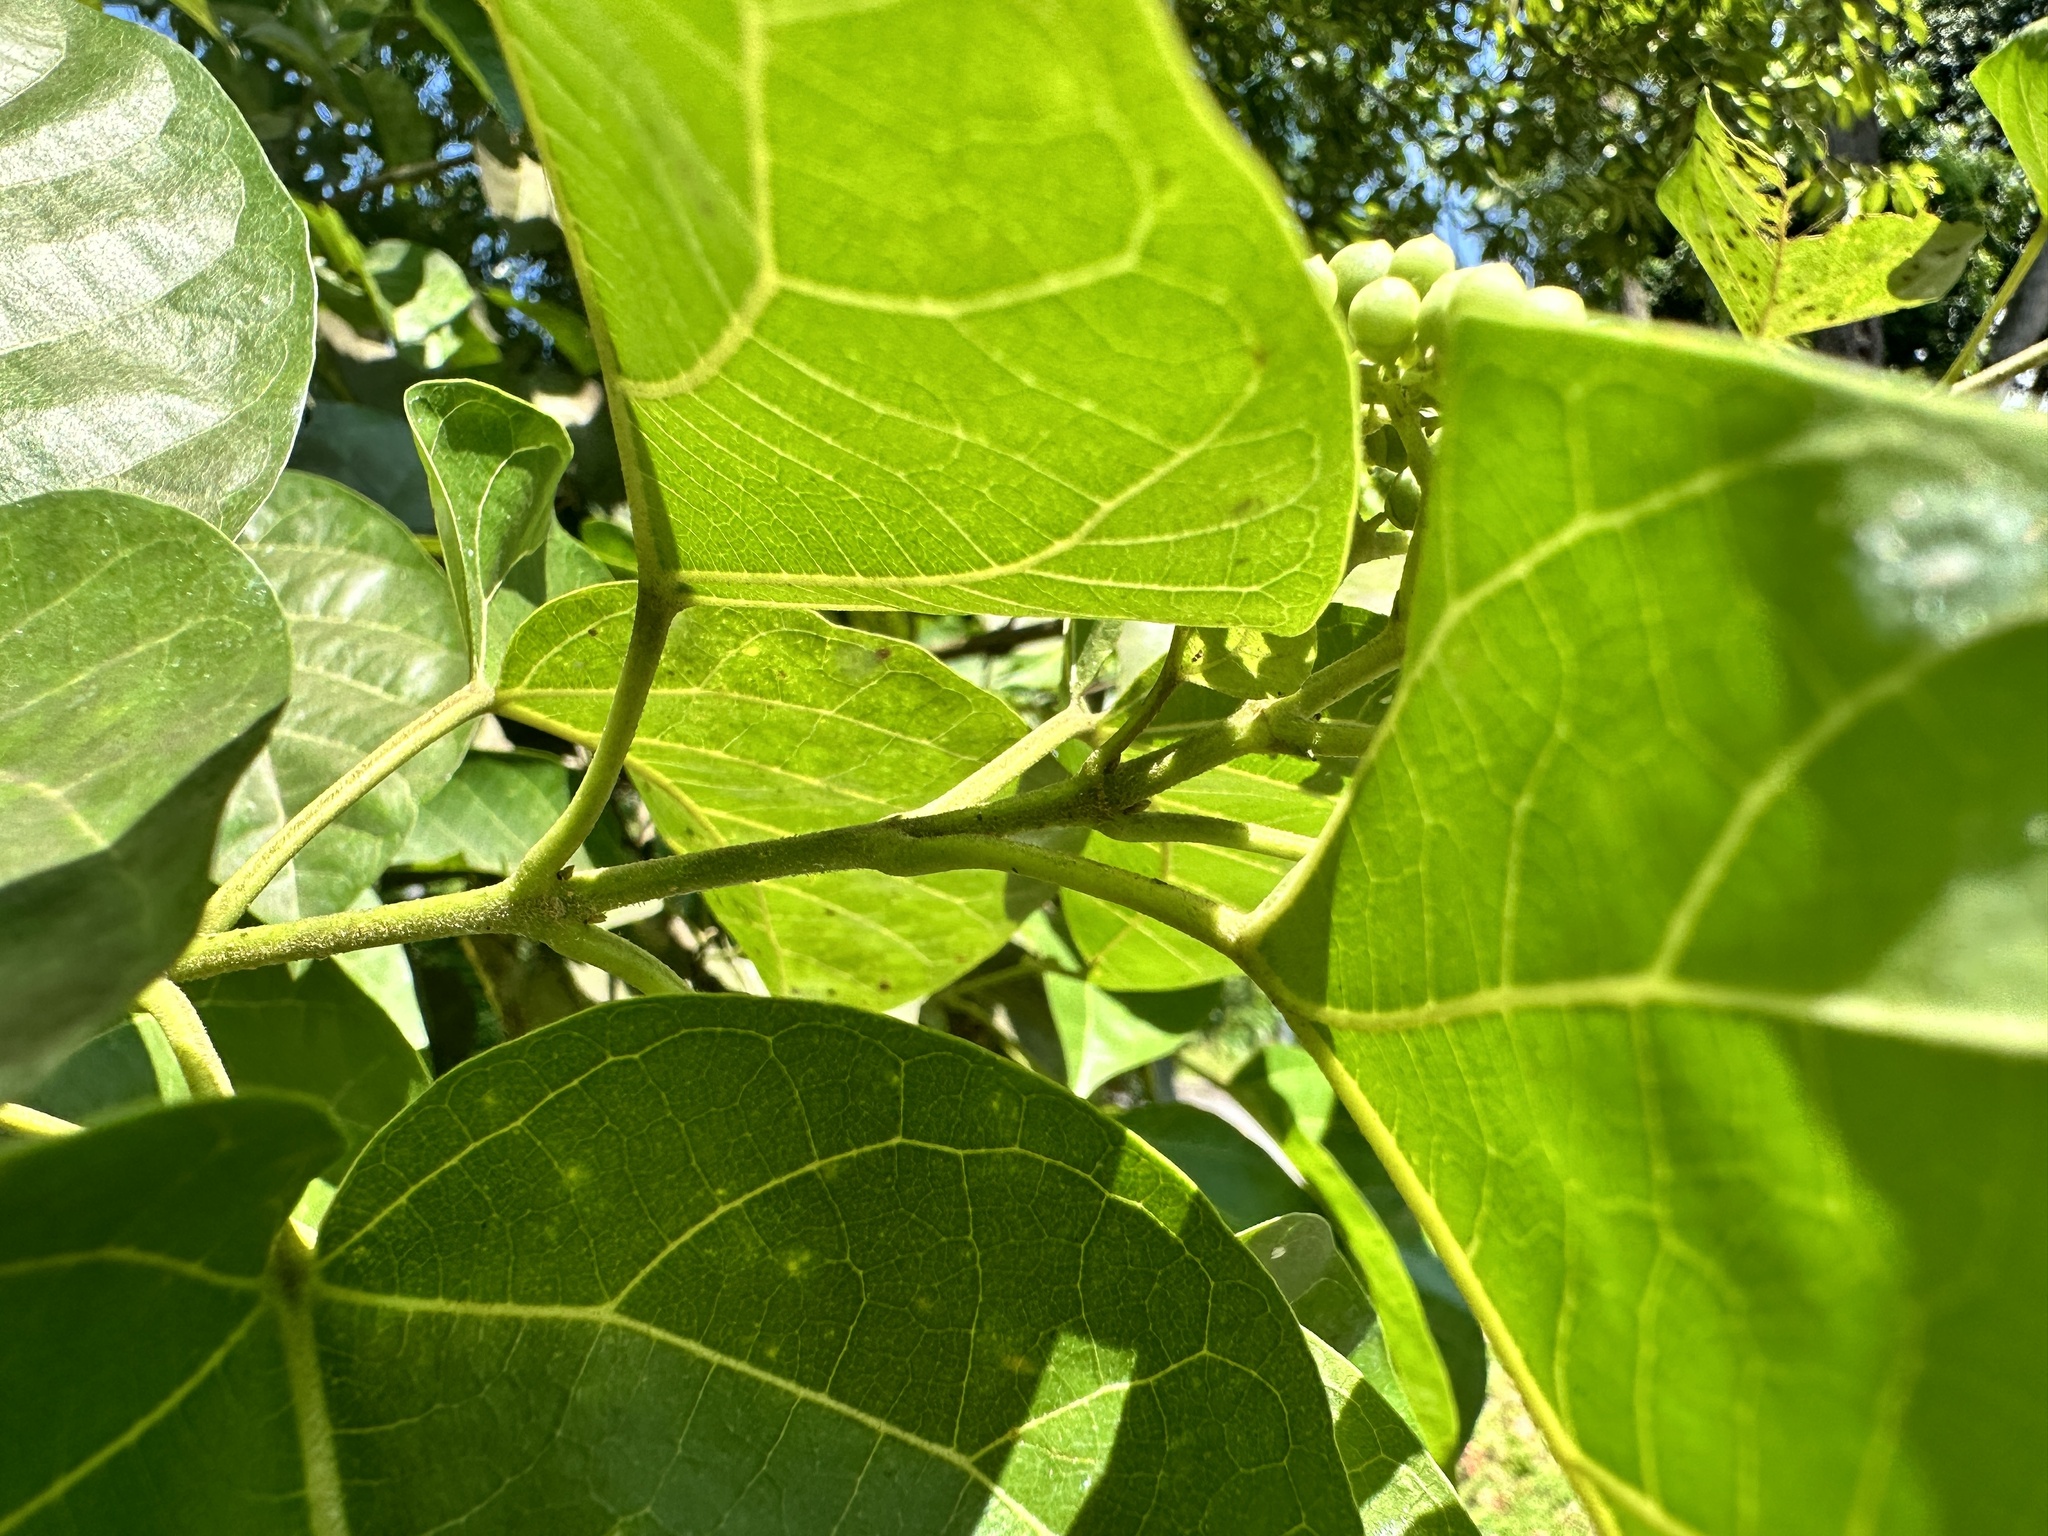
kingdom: Plantae
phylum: Tracheophyta
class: Magnoliopsida
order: Lamiales
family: Lamiaceae
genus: Premna
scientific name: Premna serratifolia
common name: Bastard guelder
